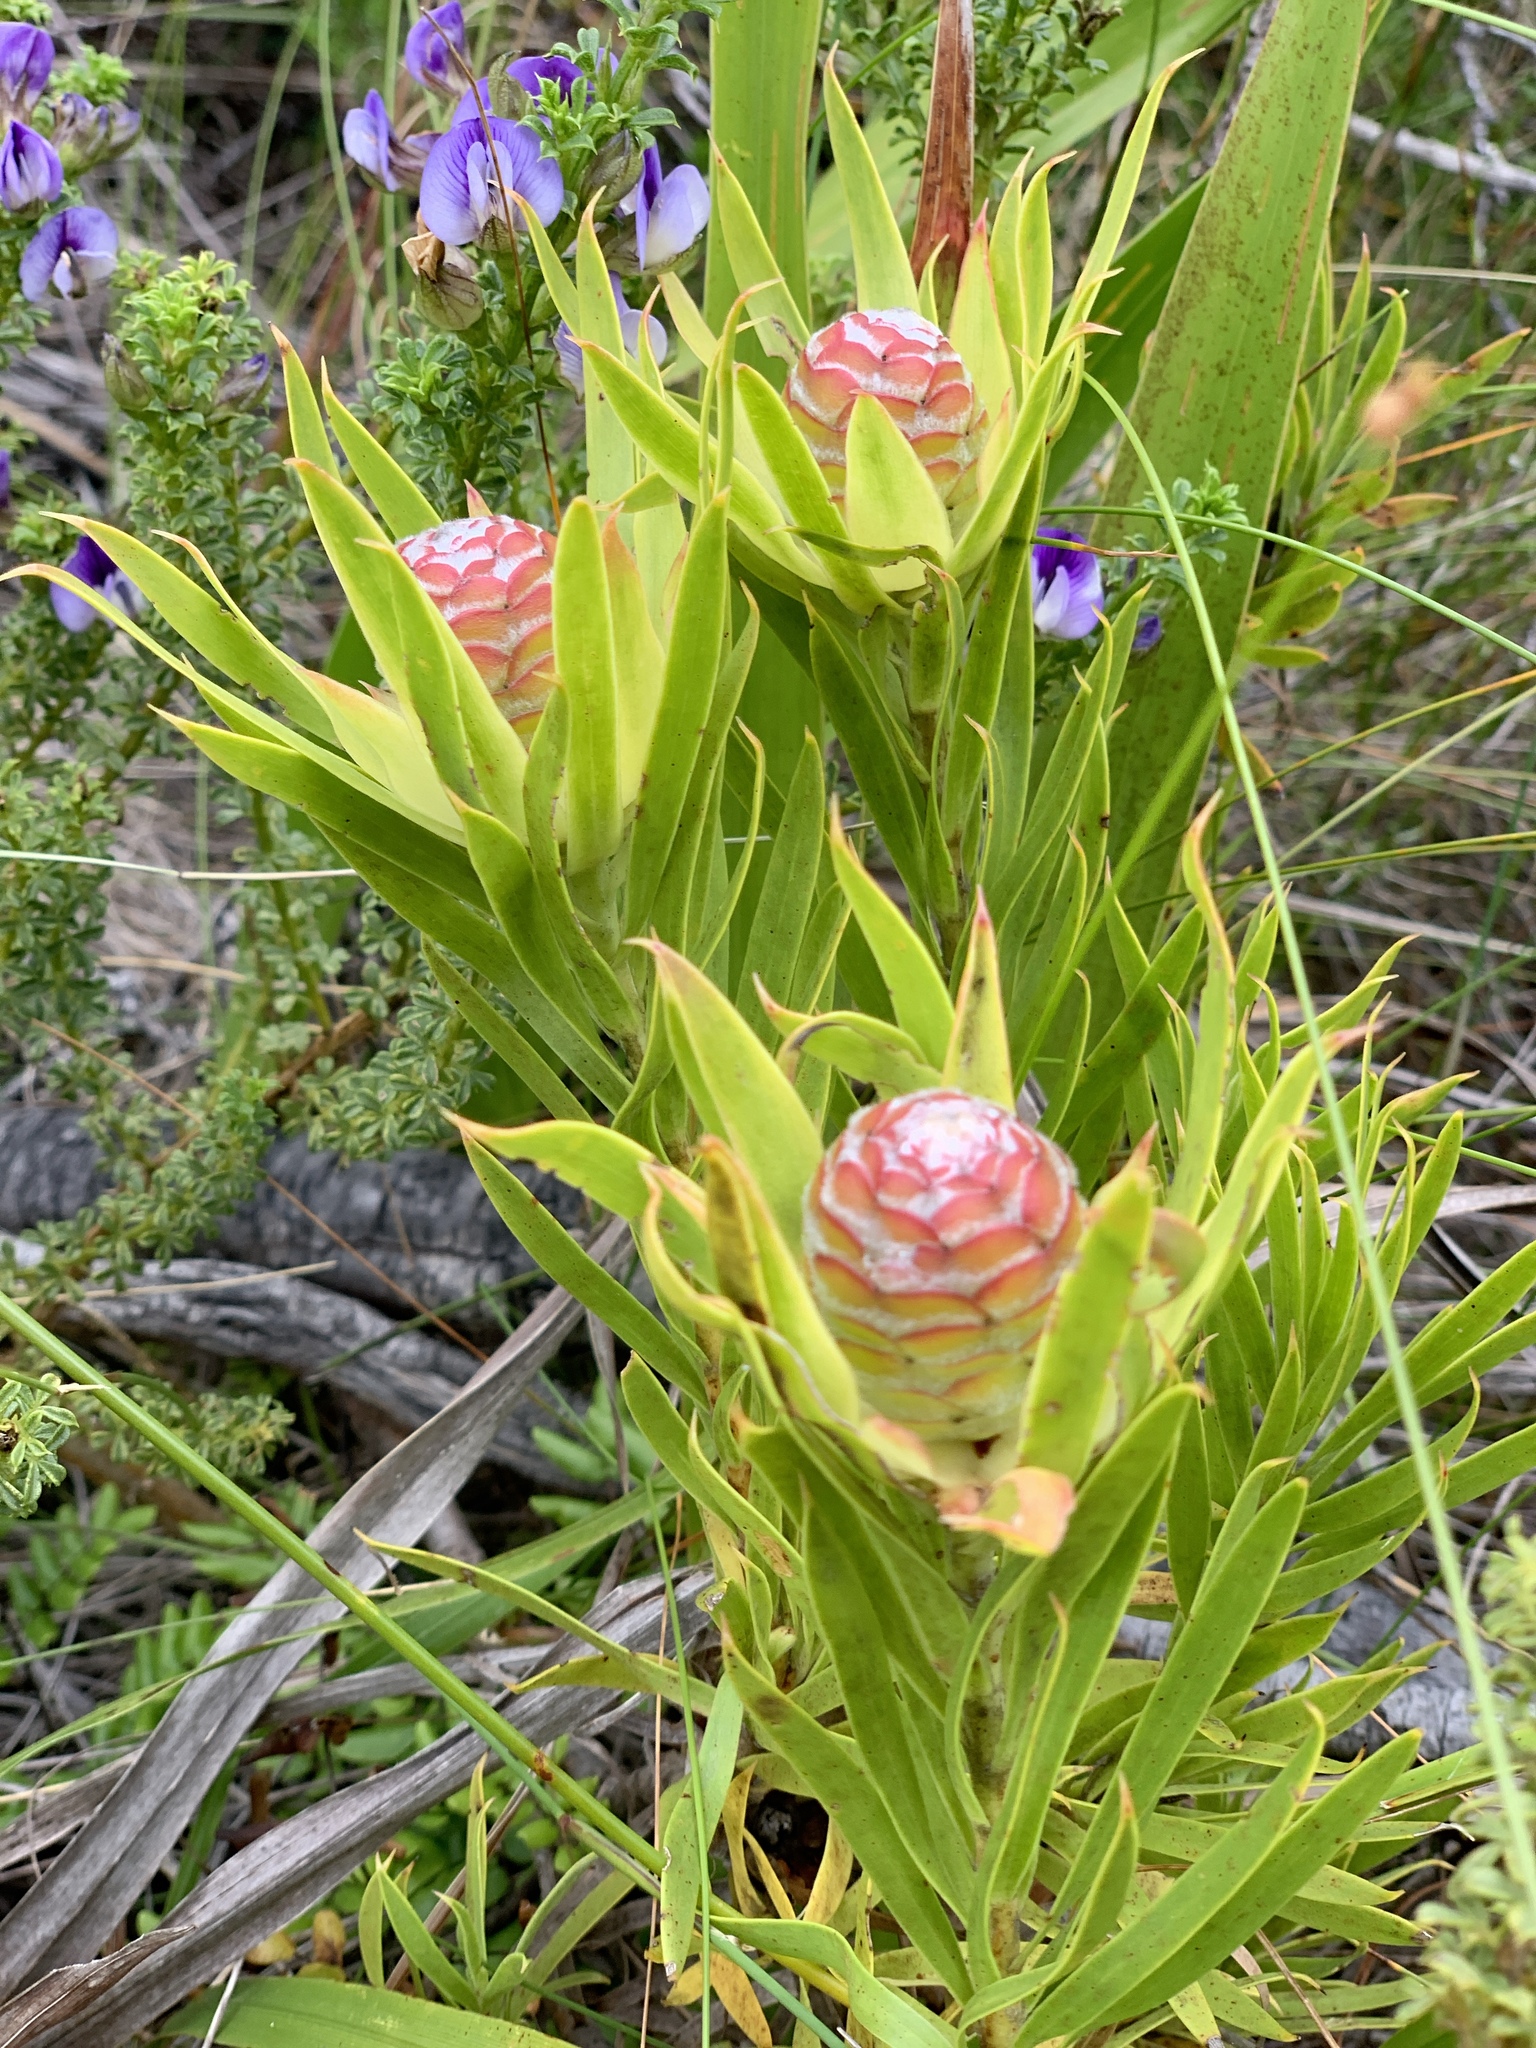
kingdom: Plantae
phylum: Tracheophyta
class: Magnoliopsida
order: Proteales
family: Proteaceae
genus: Leucadendron
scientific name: Leucadendron xanthoconus
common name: Sickle-leaf conebush
